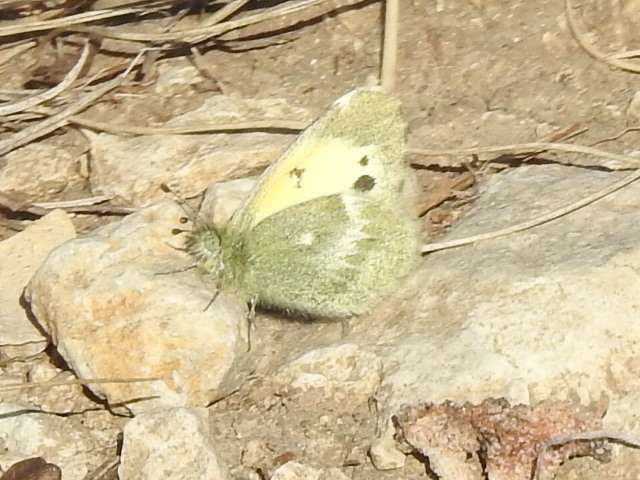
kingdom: Animalia
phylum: Arthropoda
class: Insecta
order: Lepidoptera
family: Pieridae
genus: Nathalis
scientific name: Nathalis iole
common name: Dainty sulphur
